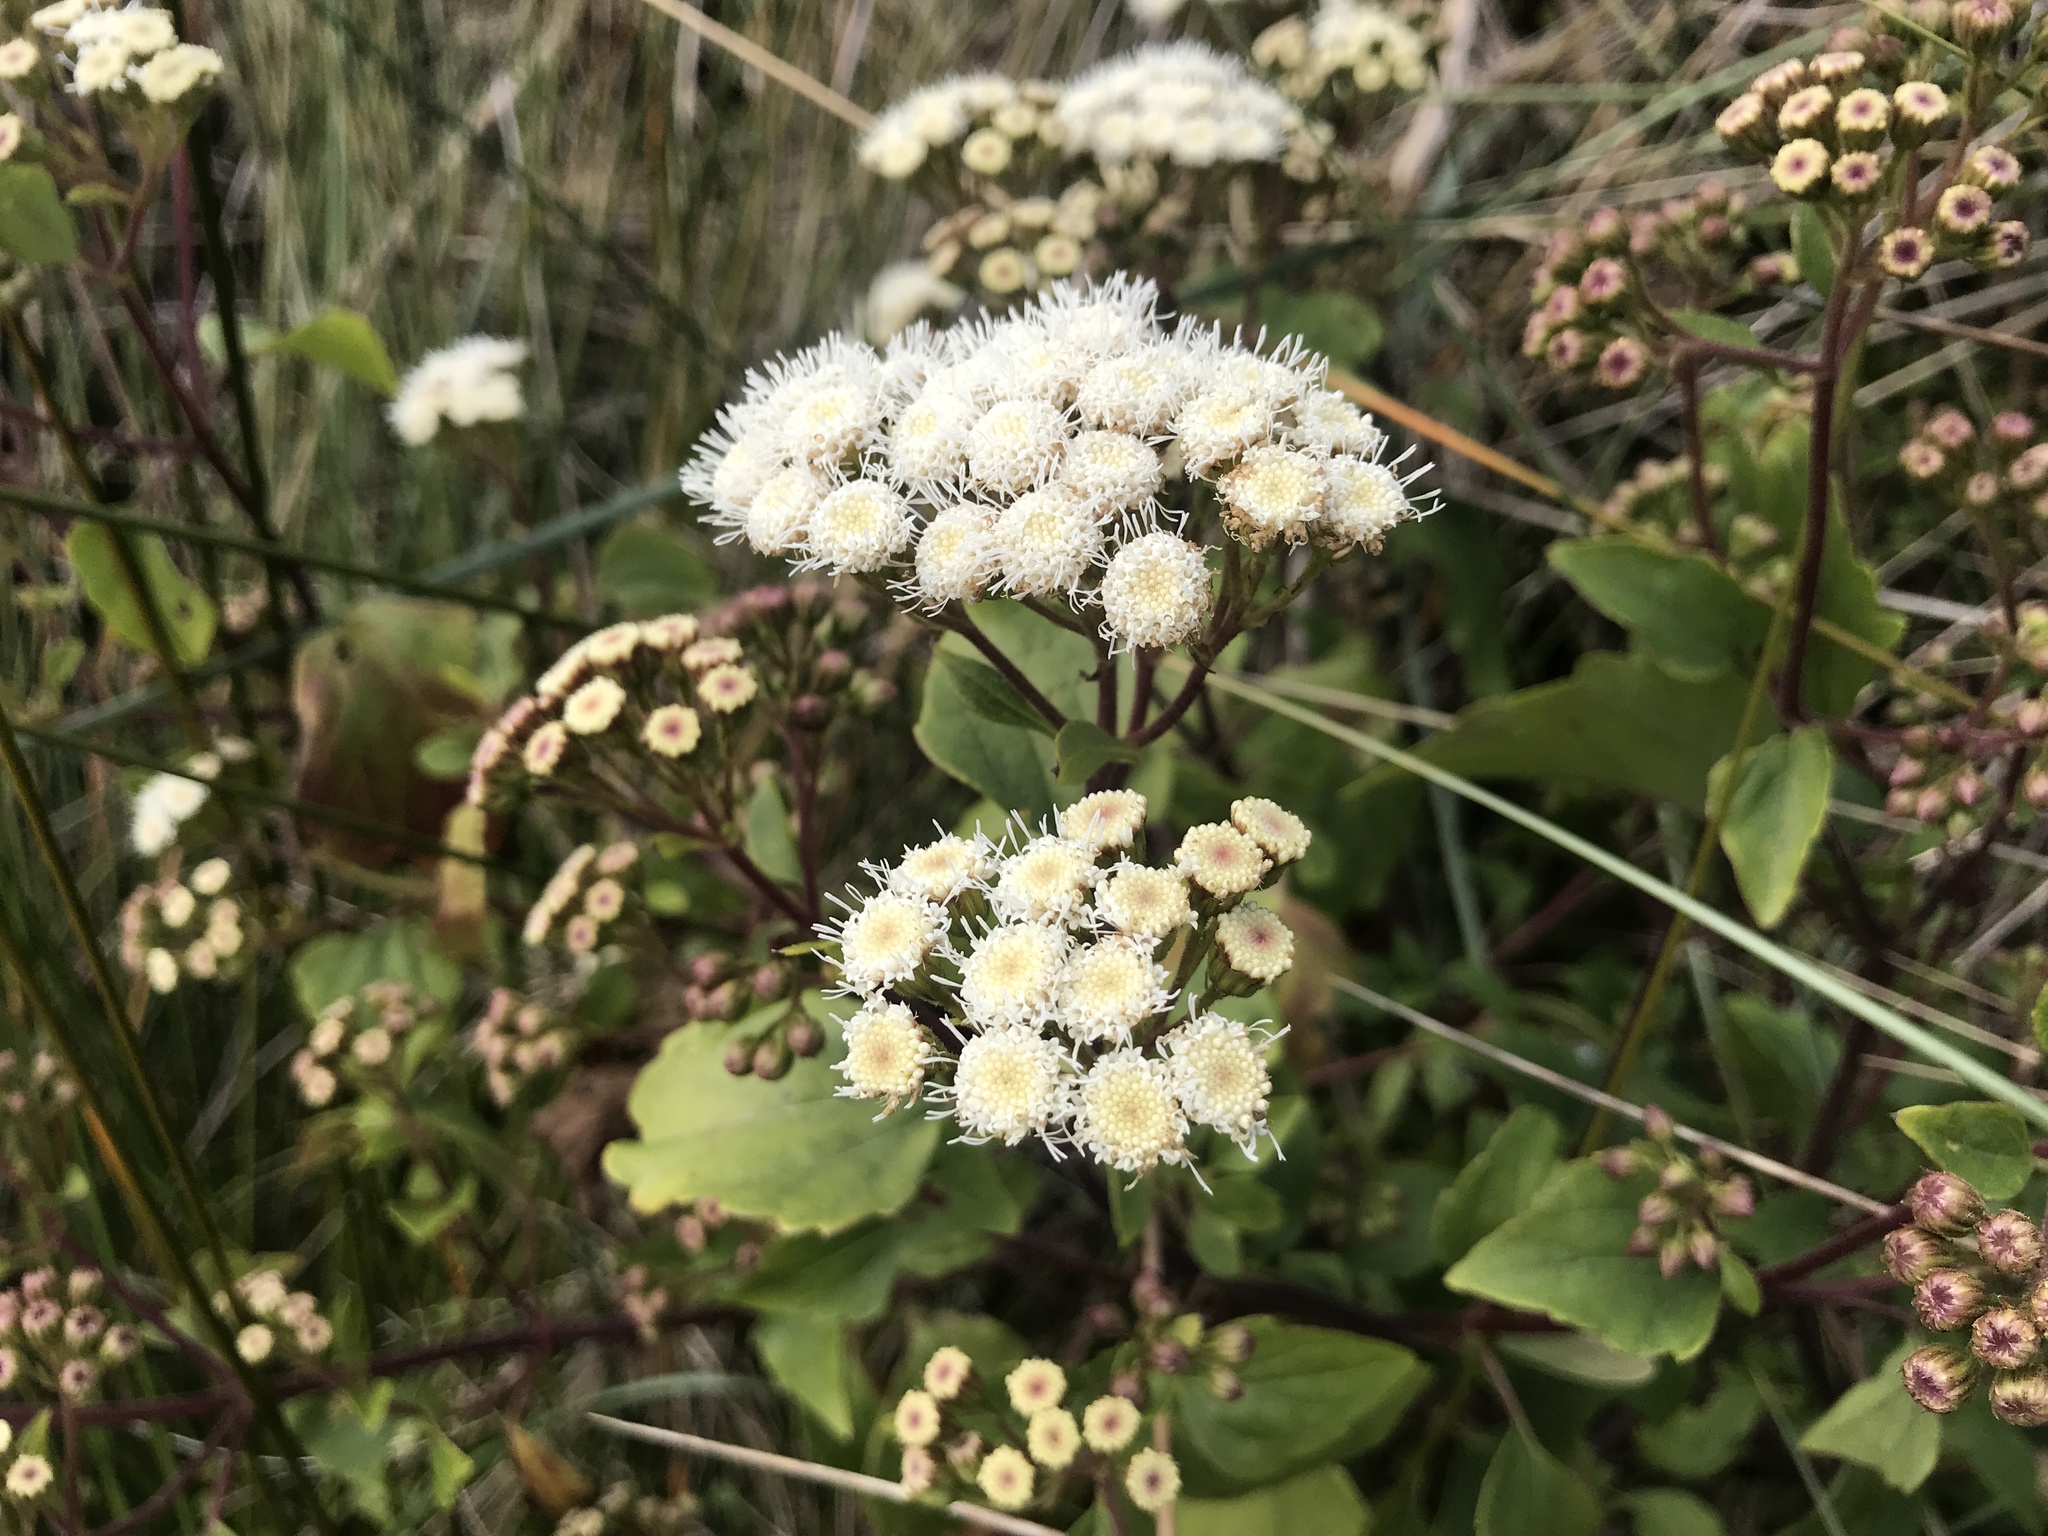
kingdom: Plantae
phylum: Tracheophyta
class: Magnoliopsida
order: Asterales
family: Asteraceae
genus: Ageratina
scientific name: Ageratina adenophora
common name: Sticky snakeroot
